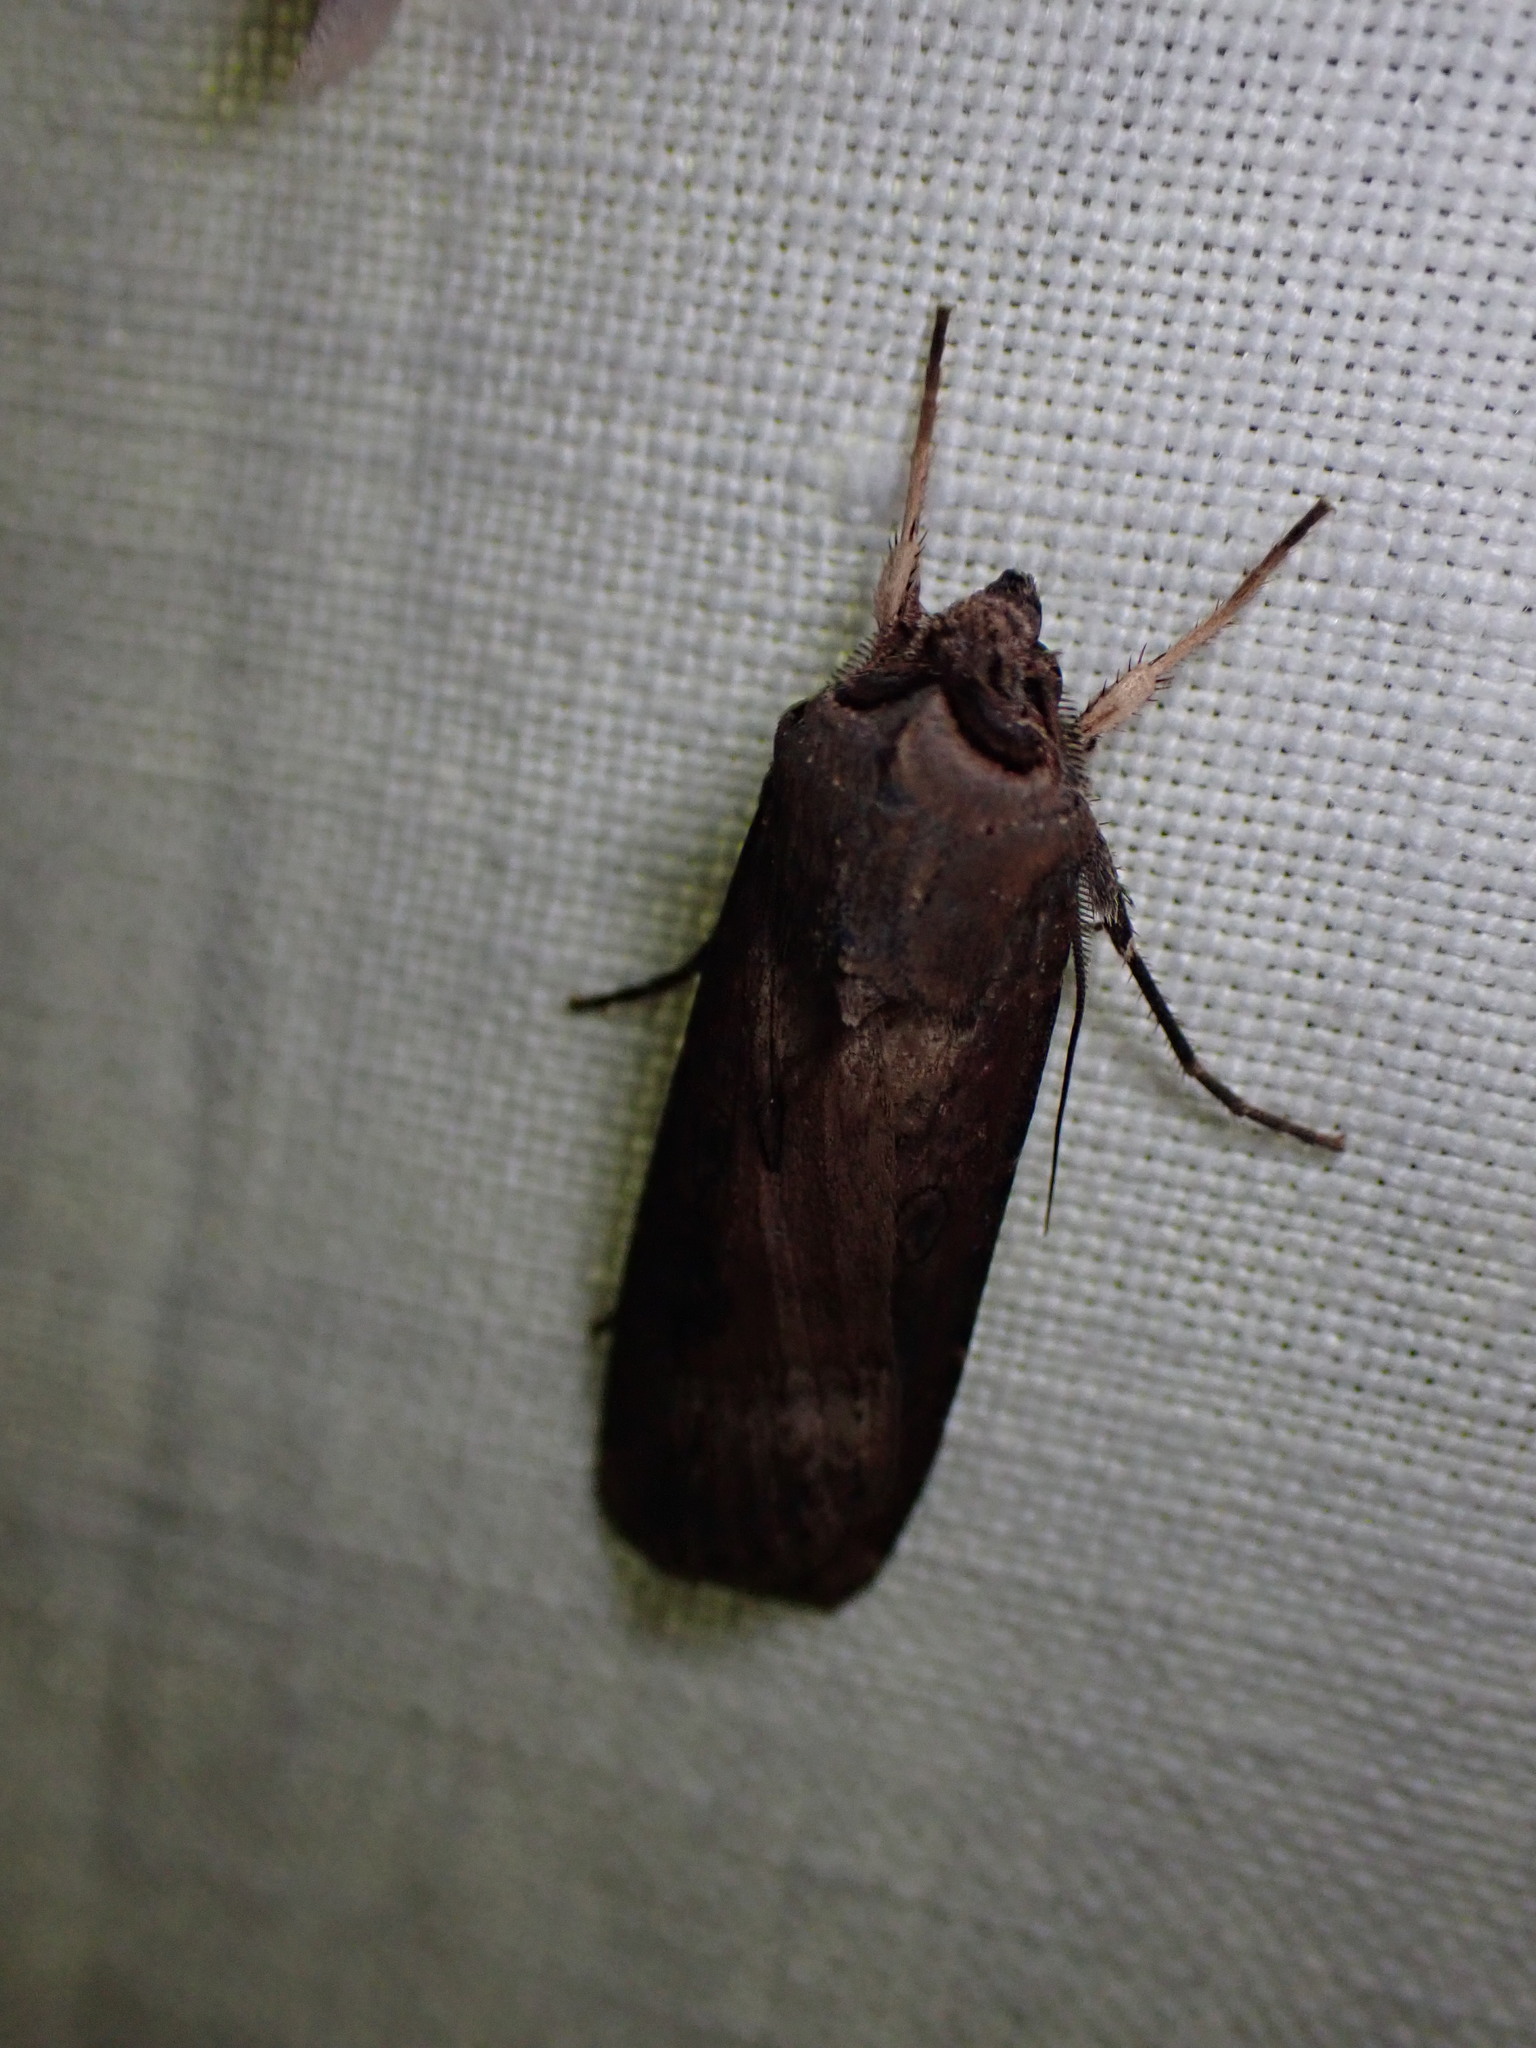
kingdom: Animalia
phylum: Arthropoda
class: Insecta
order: Lepidoptera
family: Noctuidae
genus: Agrotis
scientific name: Agrotis ipsilon
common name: Dark sword-grass
